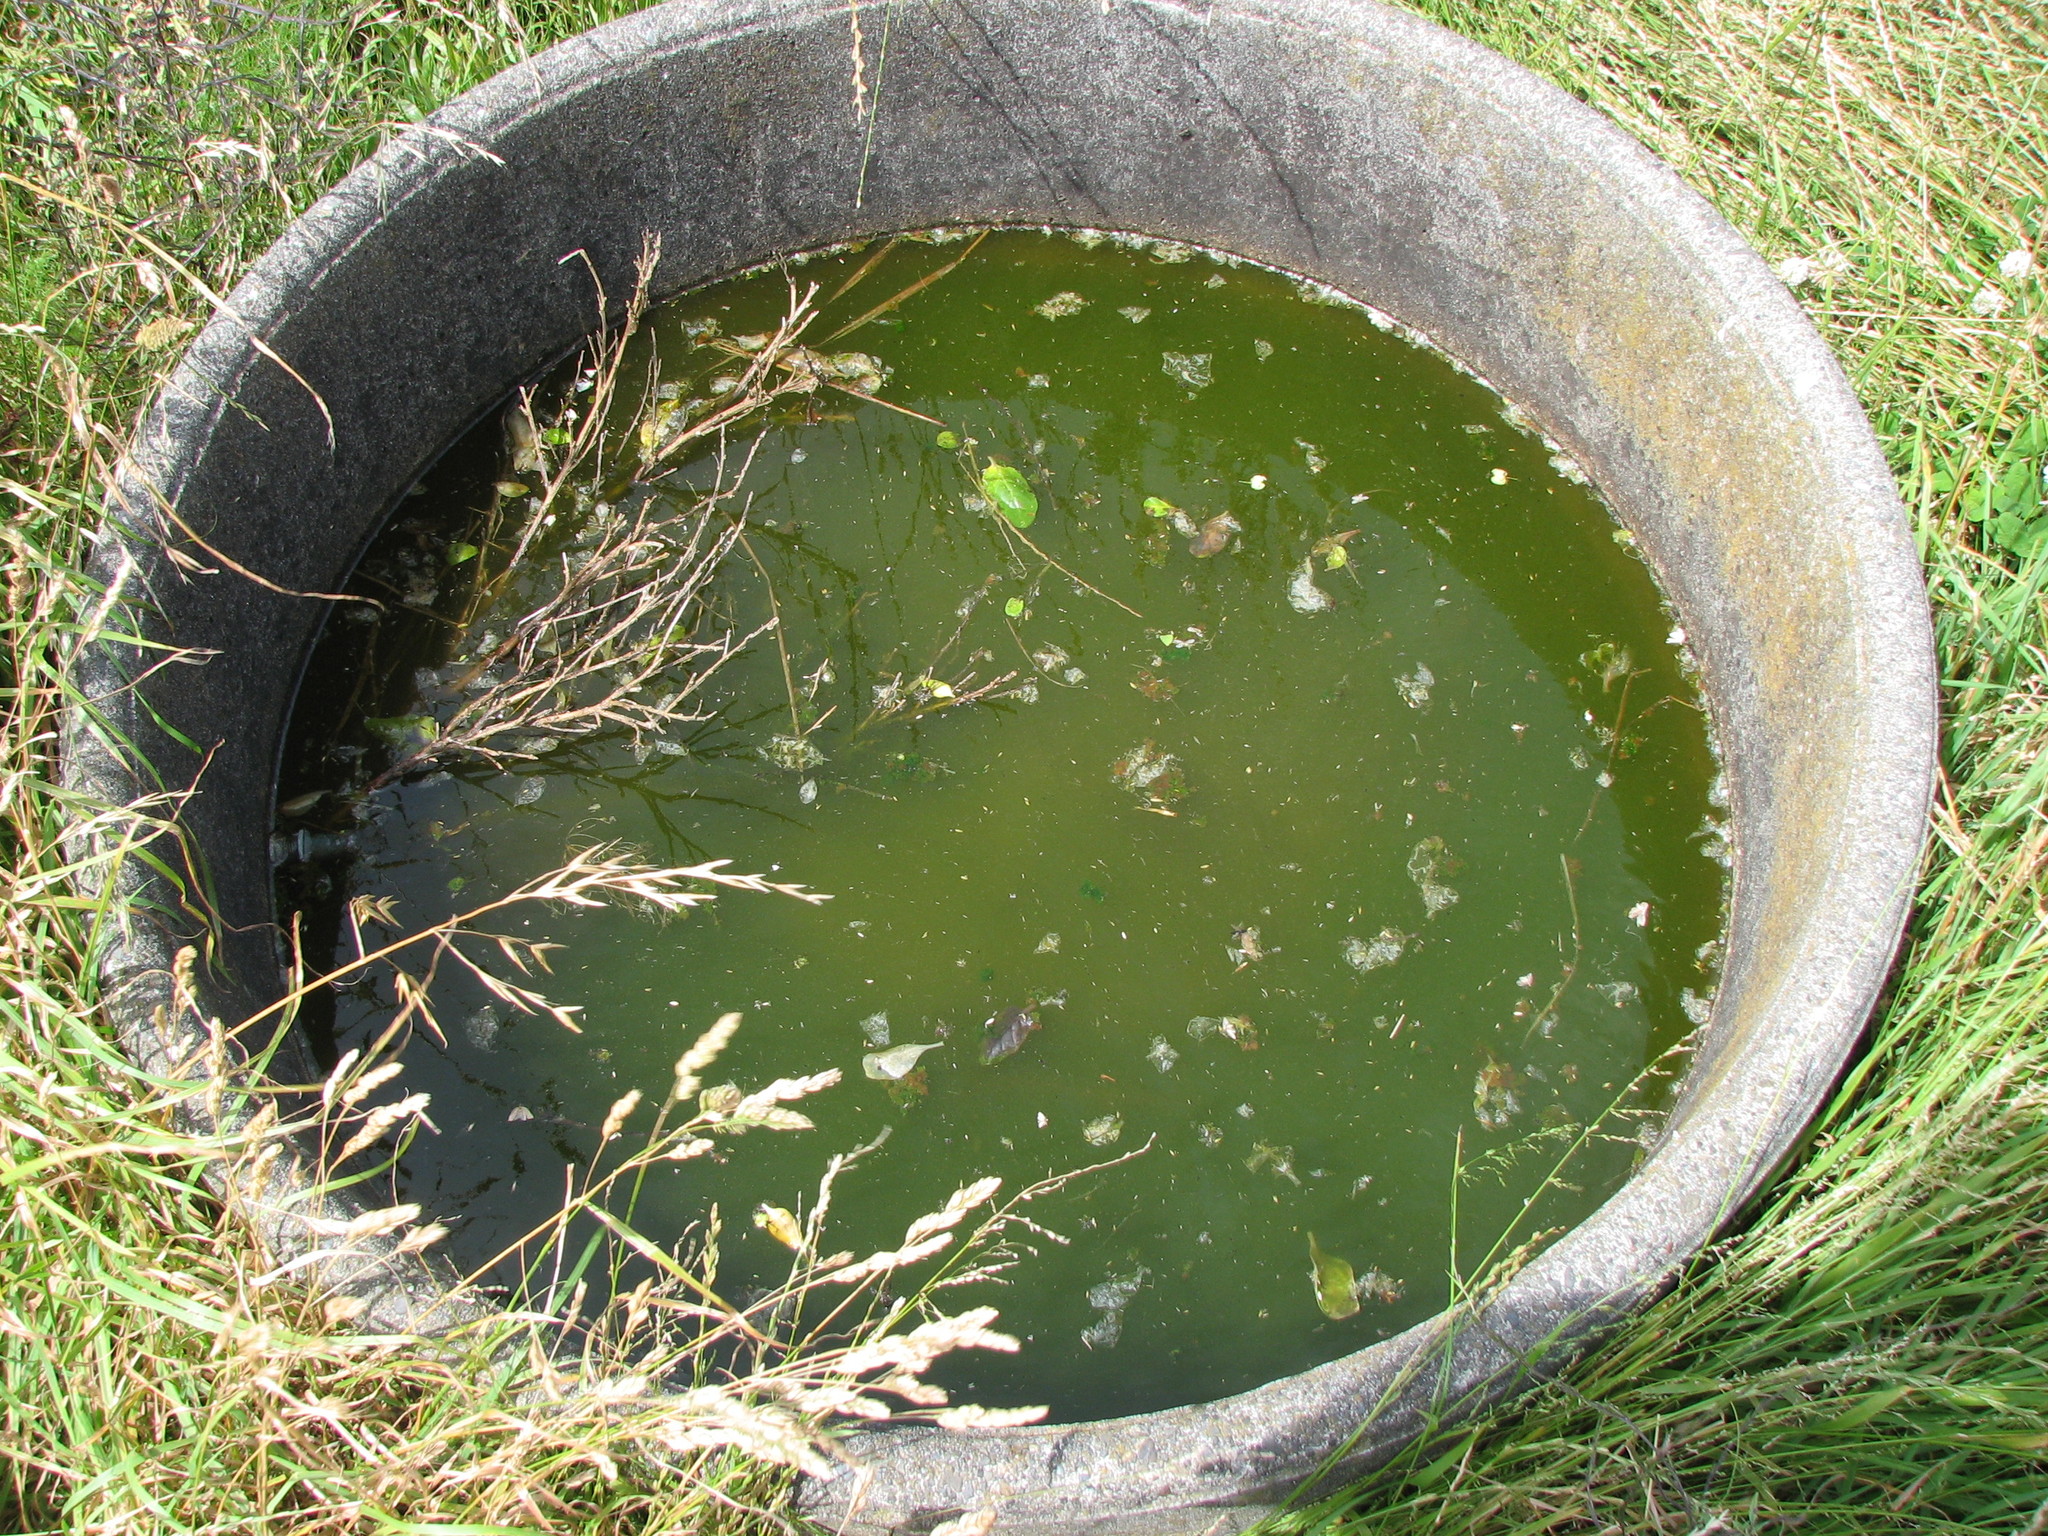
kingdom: Animalia
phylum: Arthropoda
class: Insecta
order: Diptera
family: Tachinidae
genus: Trigonospila
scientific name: Trigonospila brevifacies
